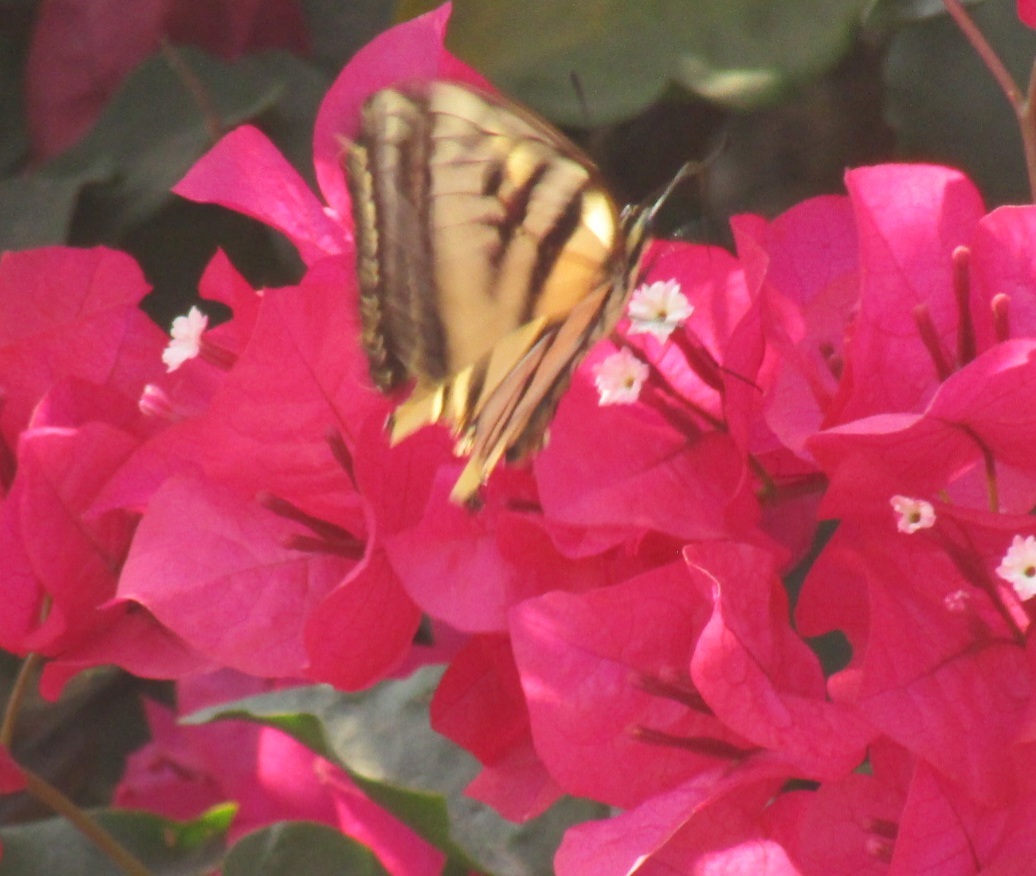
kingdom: Animalia
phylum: Arthropoda
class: Insecta
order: Lepidoptera
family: Papilionidae
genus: Papilio
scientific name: Papilio rutulus
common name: Western tiger swallowtail
